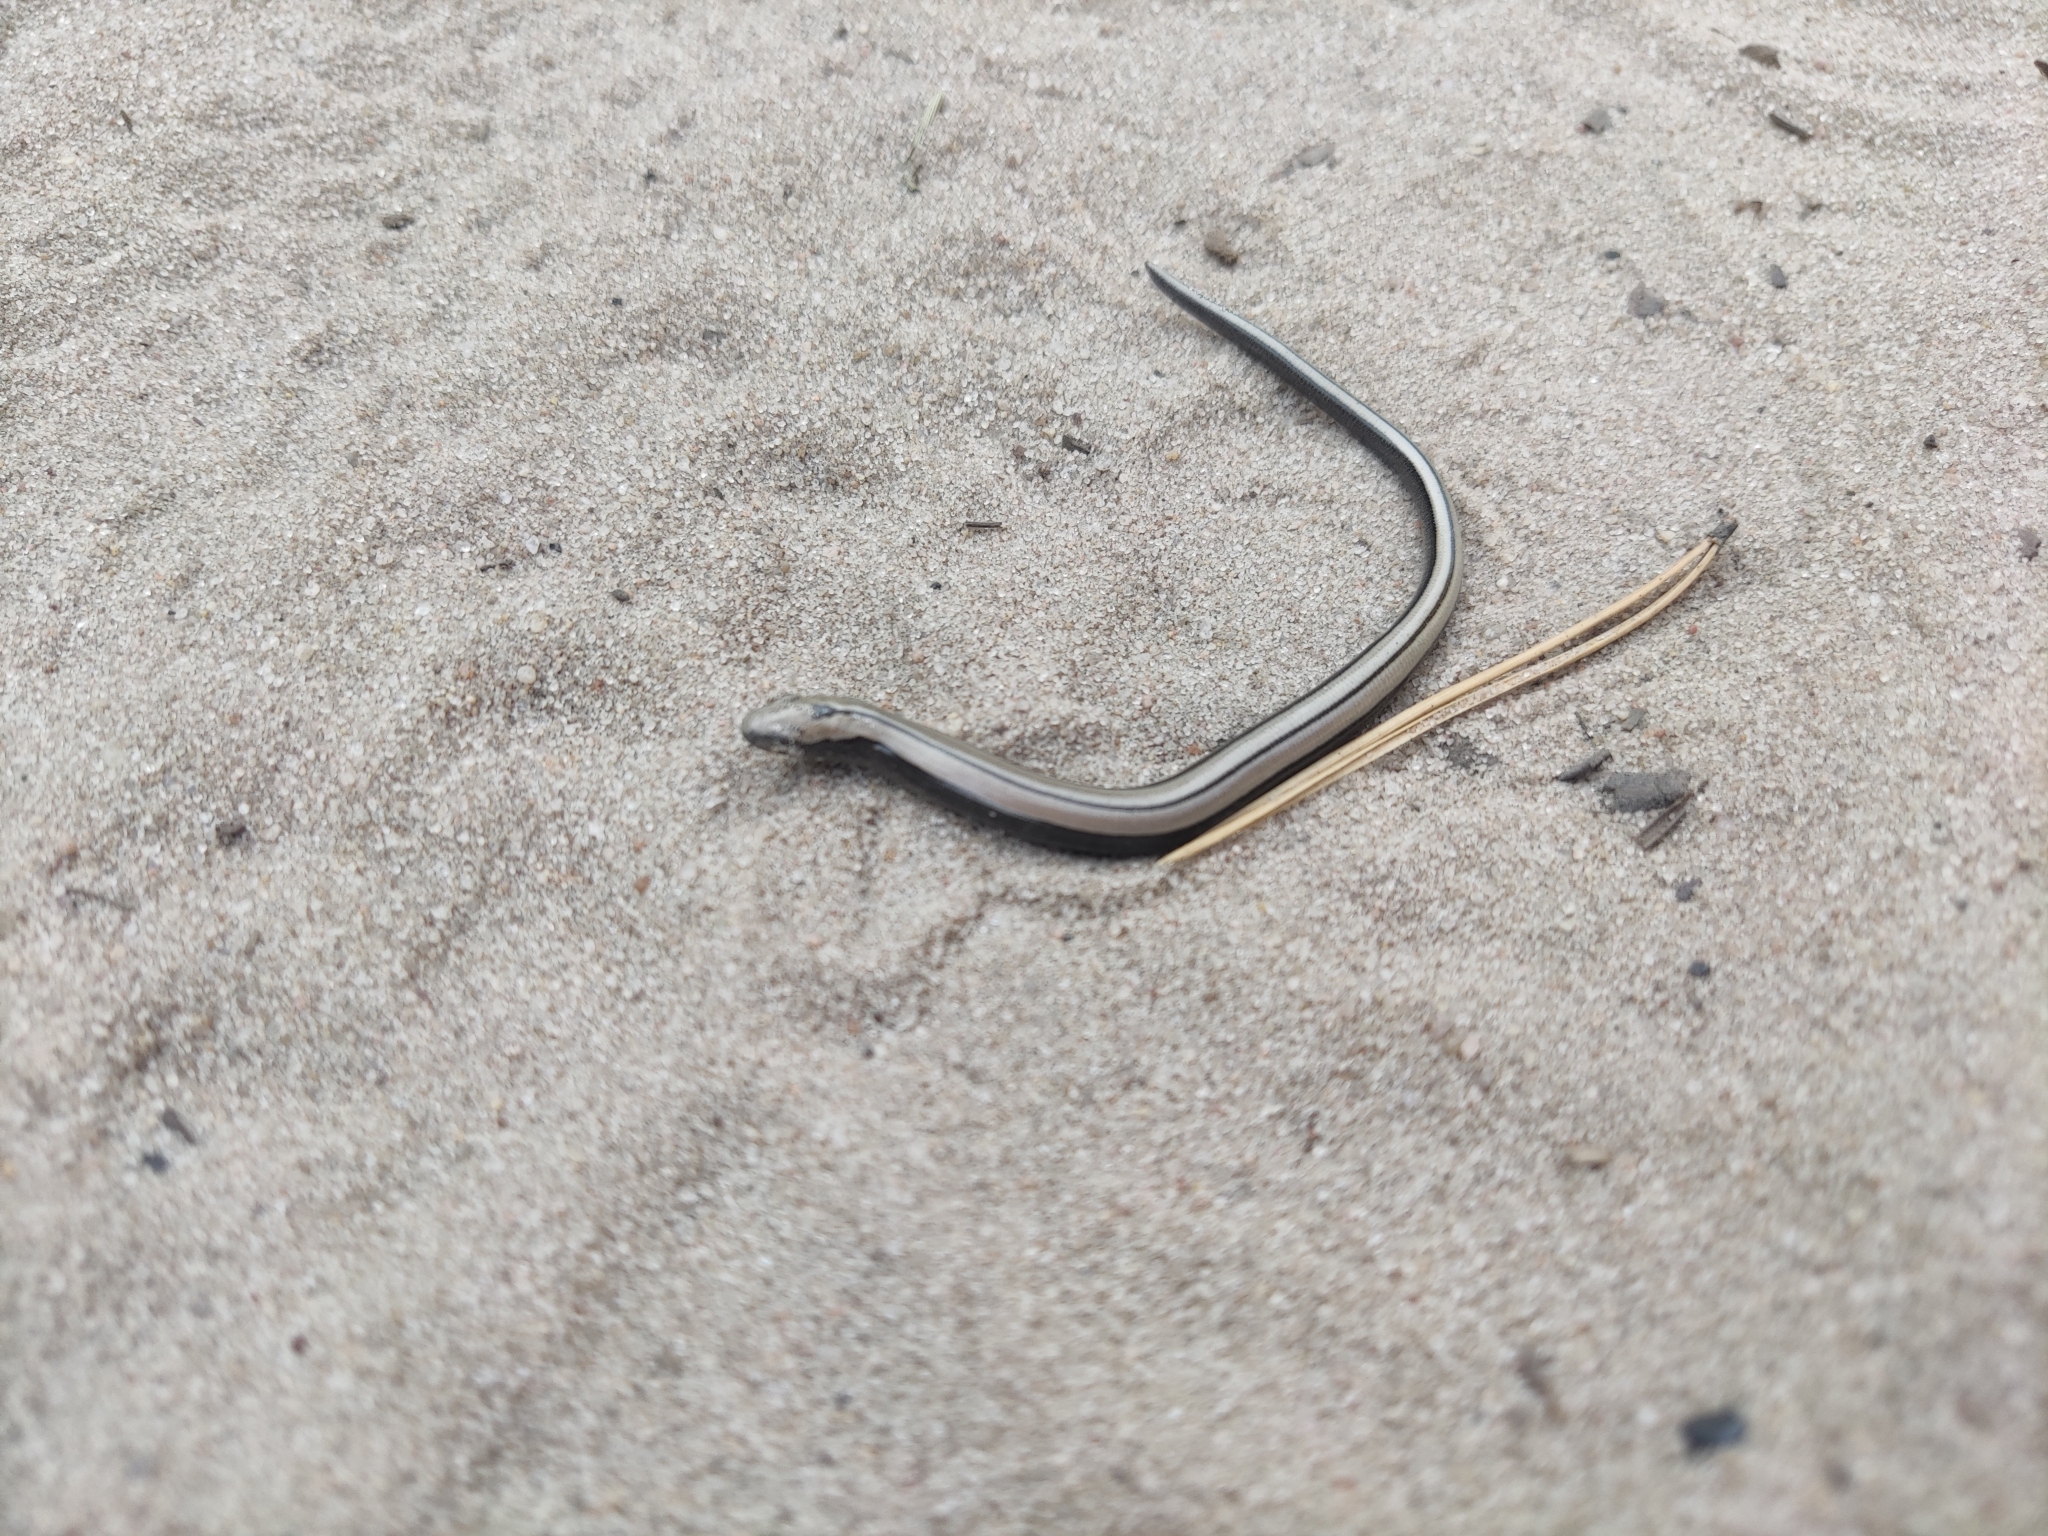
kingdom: Animalia
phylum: Chordata
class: Squamata
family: Anguidae
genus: Anguis
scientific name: Anguis colchica
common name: Slow worm
